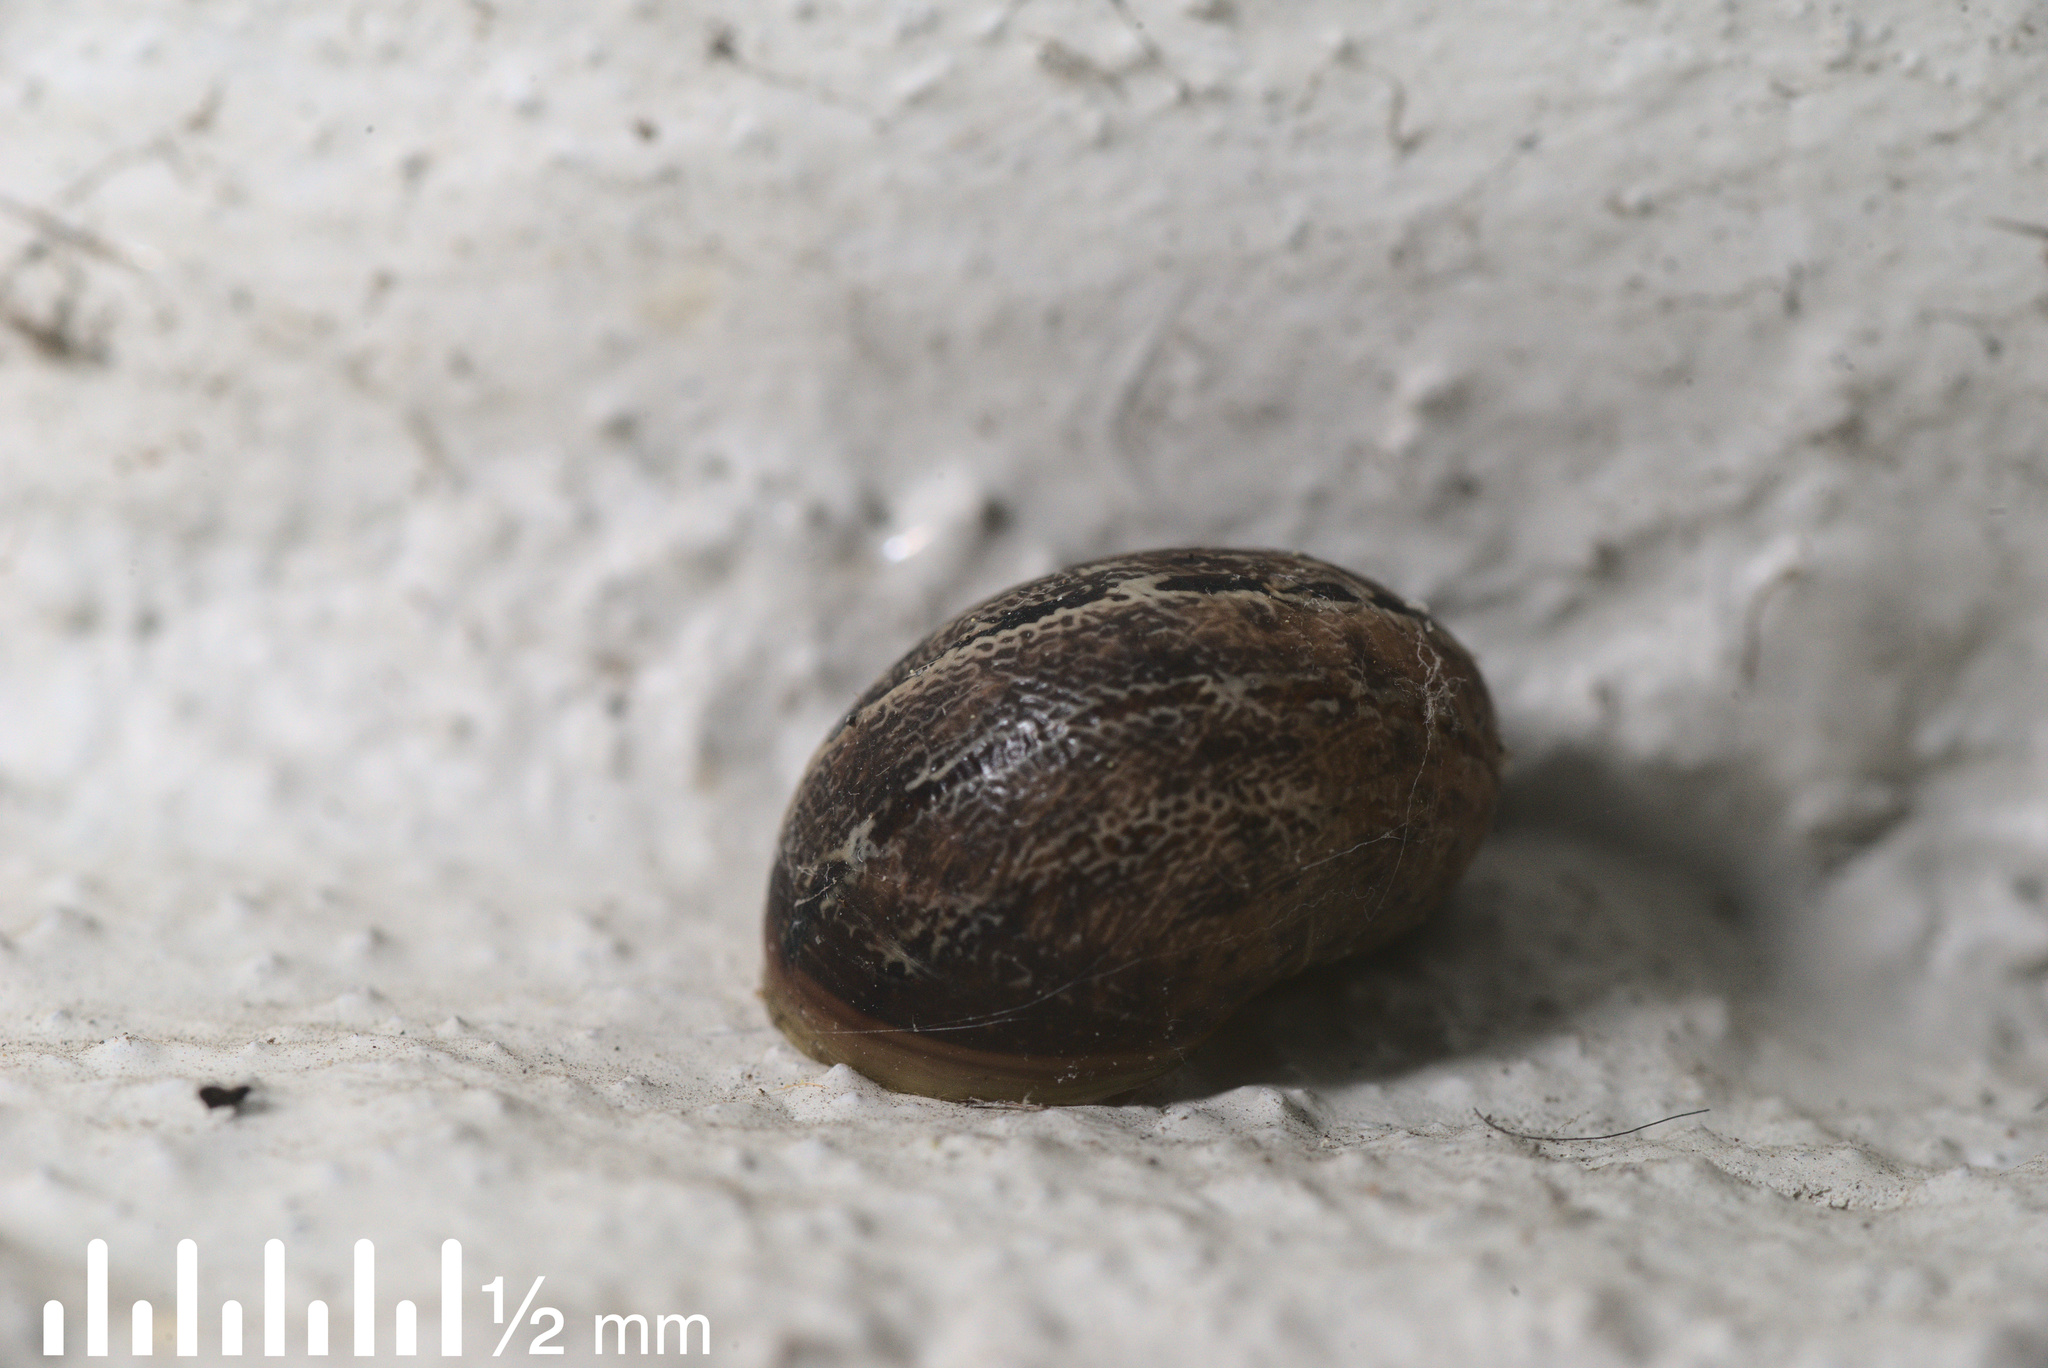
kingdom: Animalia
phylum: Mollusca
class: Gastropoda
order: Stylommatophora
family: Helicidae
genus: Cornu
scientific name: Cornu aspersum
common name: Brown garden snail
